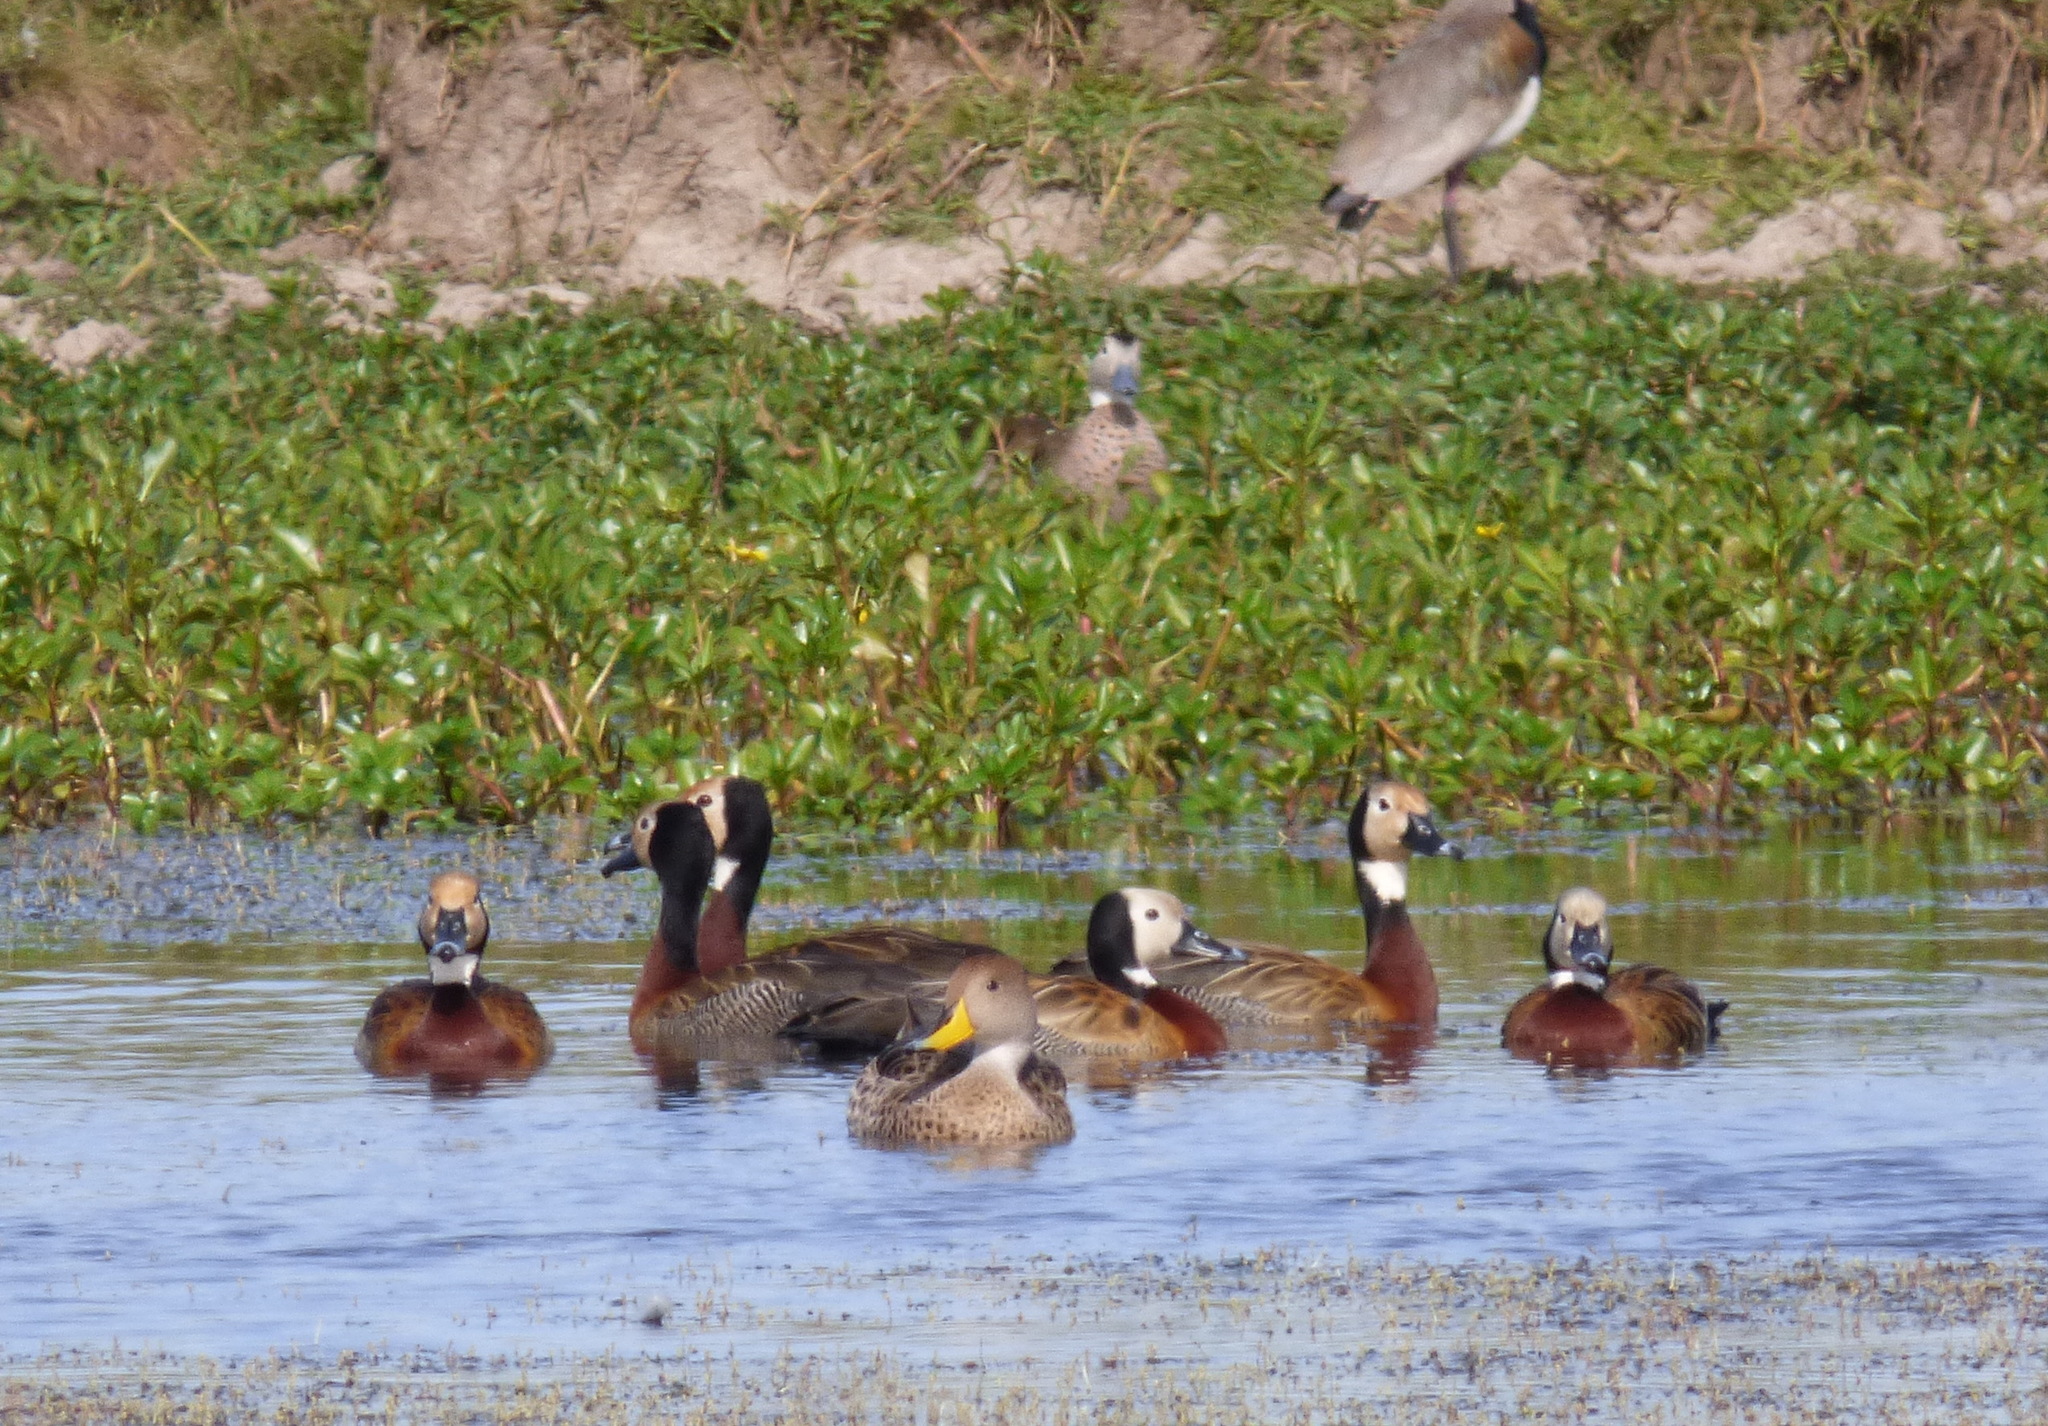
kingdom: Animalia
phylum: Chordata
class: Aves
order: Anseriformes
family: Anatidae
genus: Anas
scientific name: Anas georgica
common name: Yellow-billed pintail
